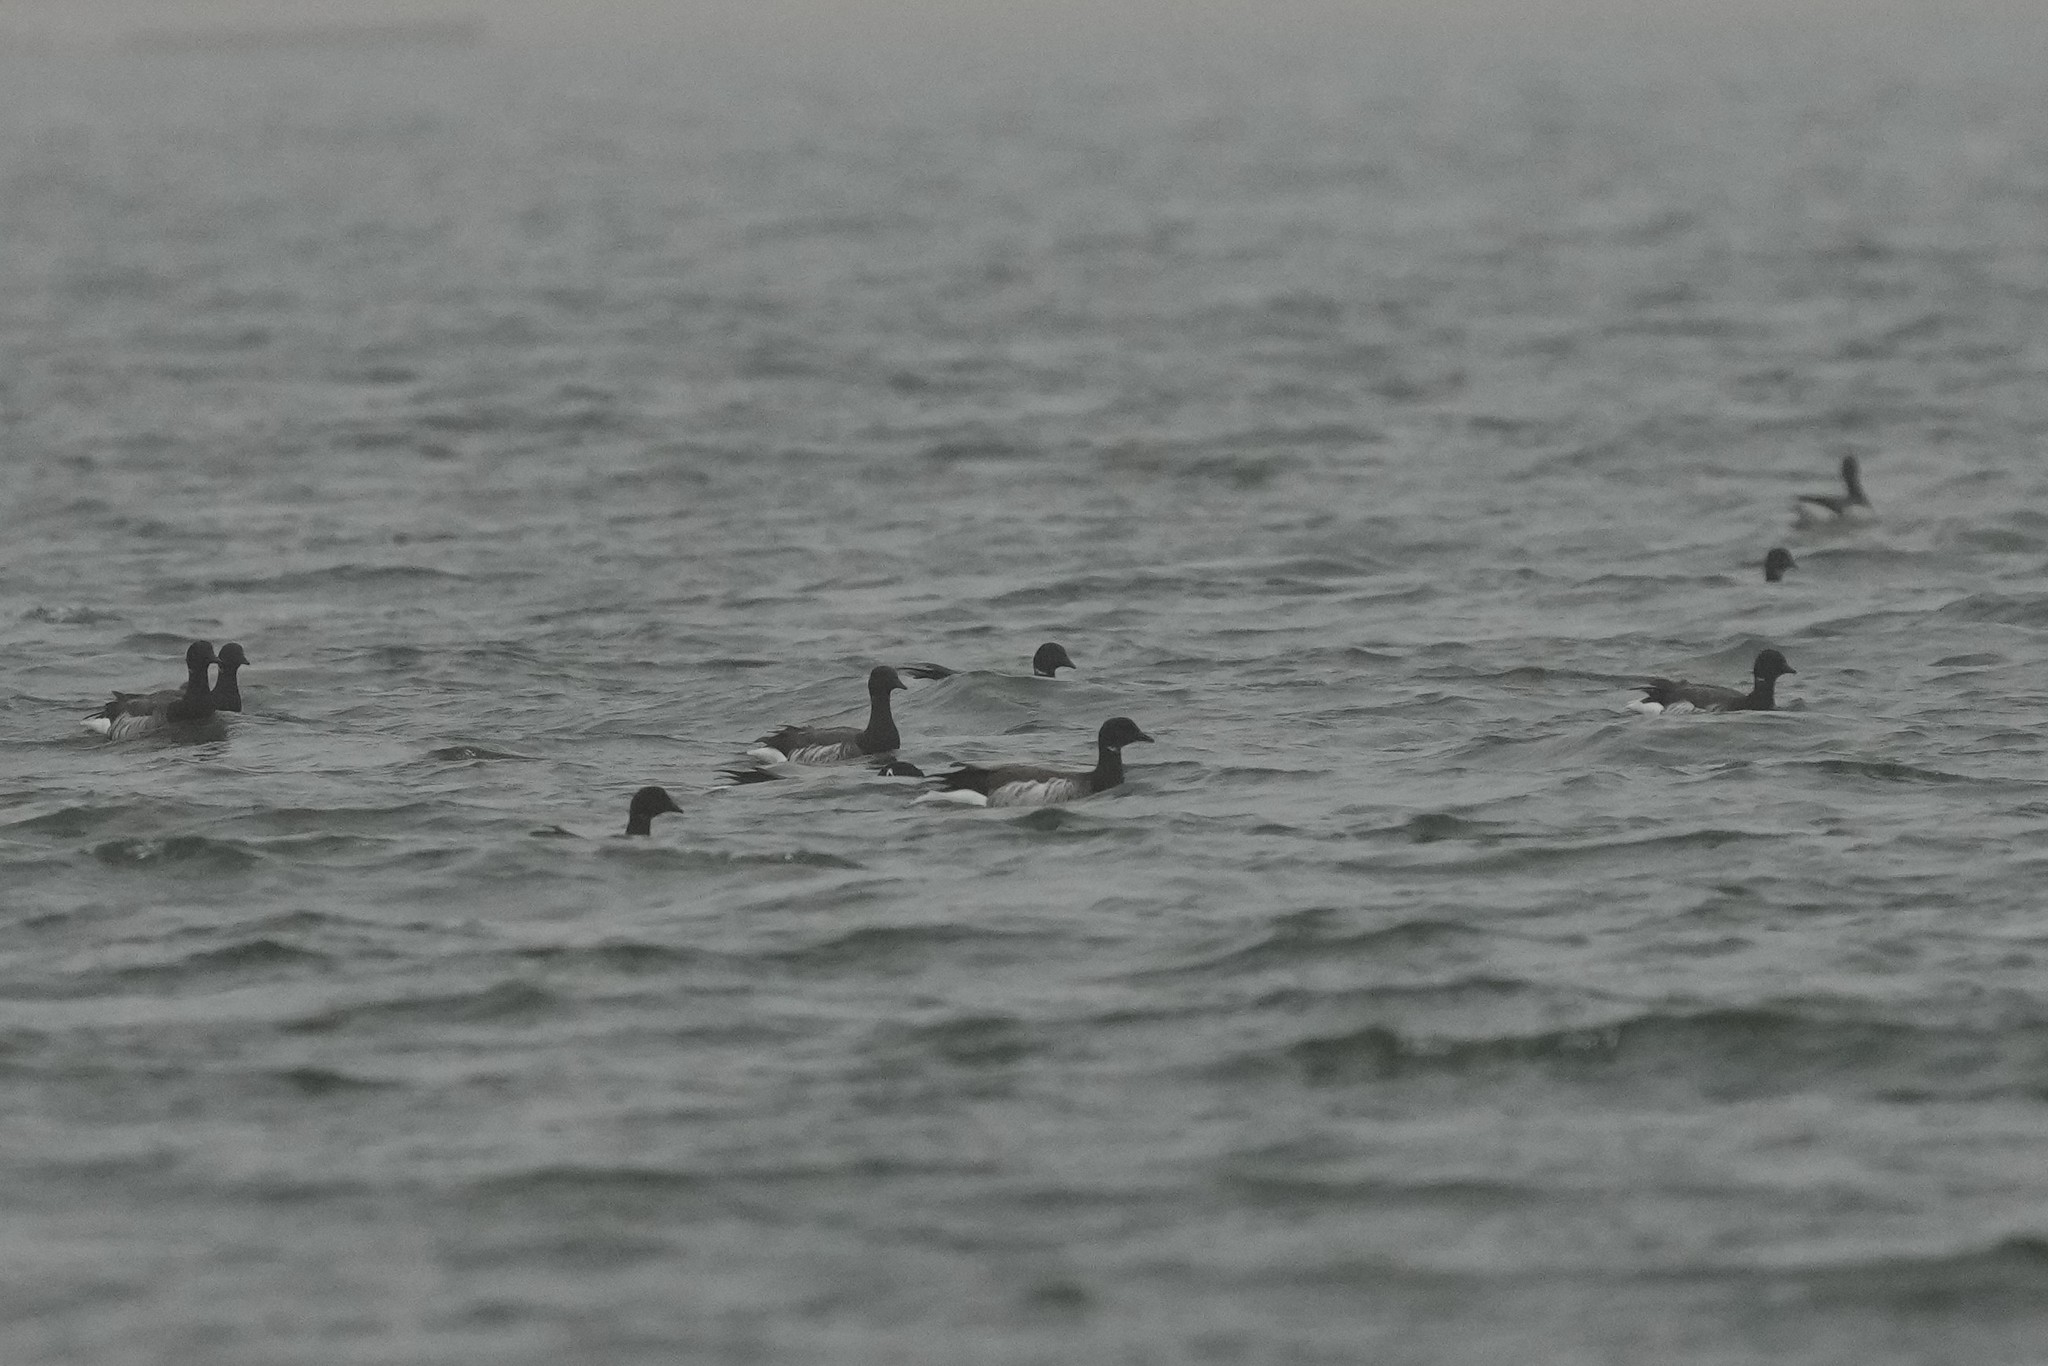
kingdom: Animalia
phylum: Chordata
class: Aves
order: Anseriformes
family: Anatidae
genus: Branta
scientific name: Branta bernicla
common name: Brant goose
